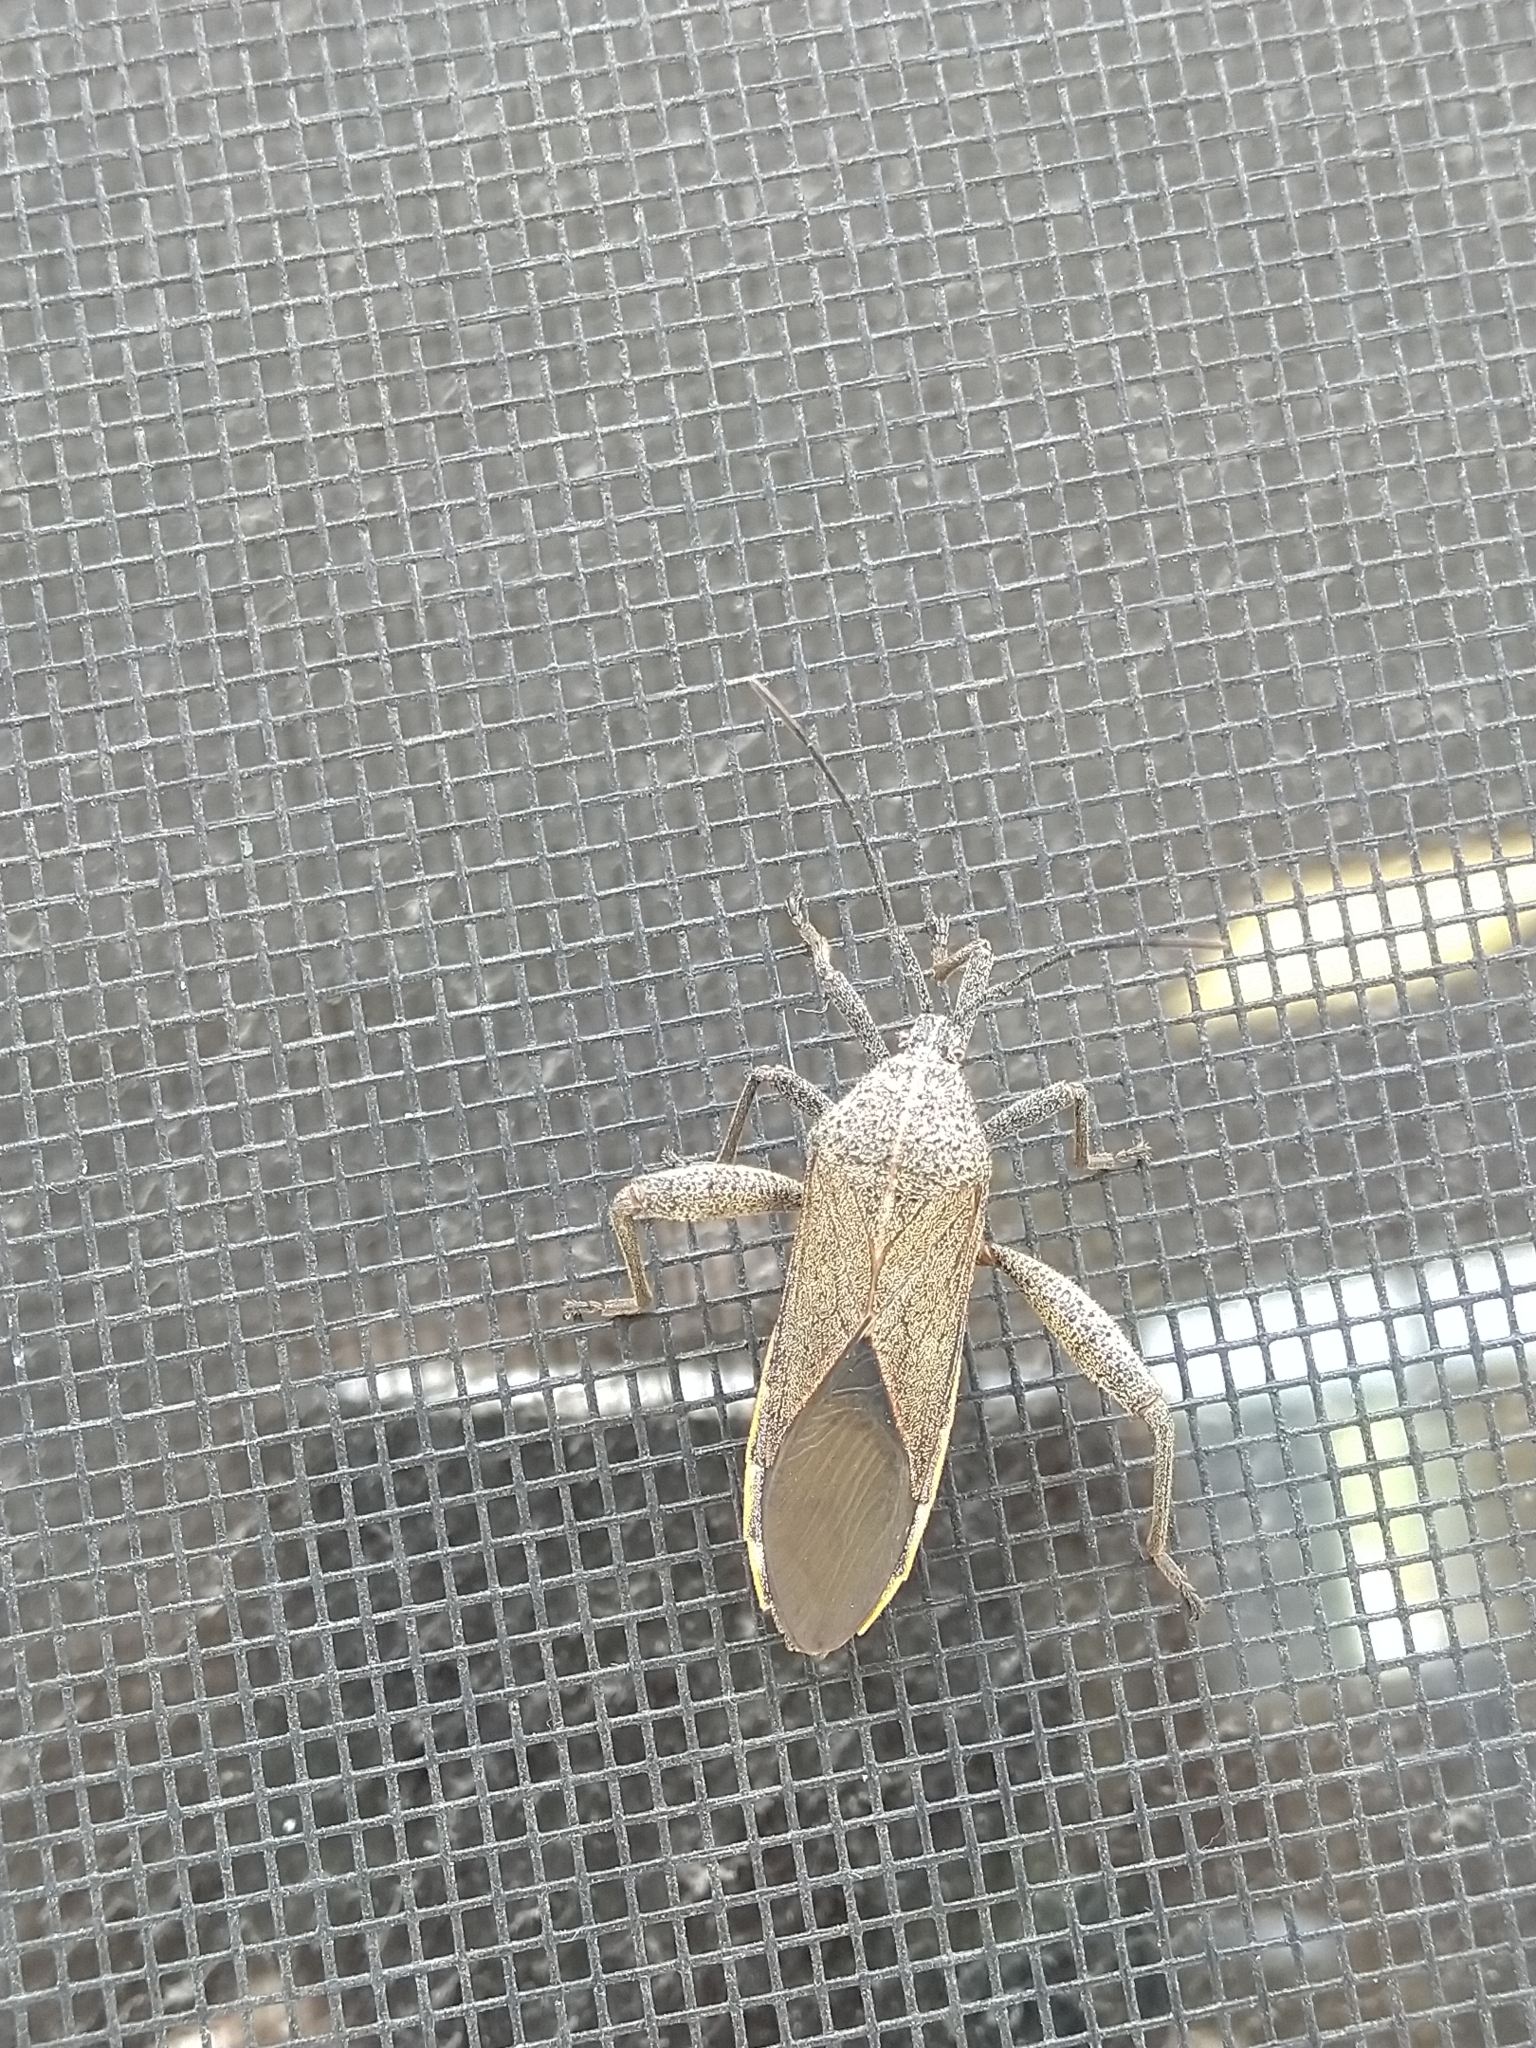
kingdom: Animalia
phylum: Arthropoda
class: Insecta
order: Hemiptera
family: Coreidae
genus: Physomerus
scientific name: Physomerus grossipes
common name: Squash bug
